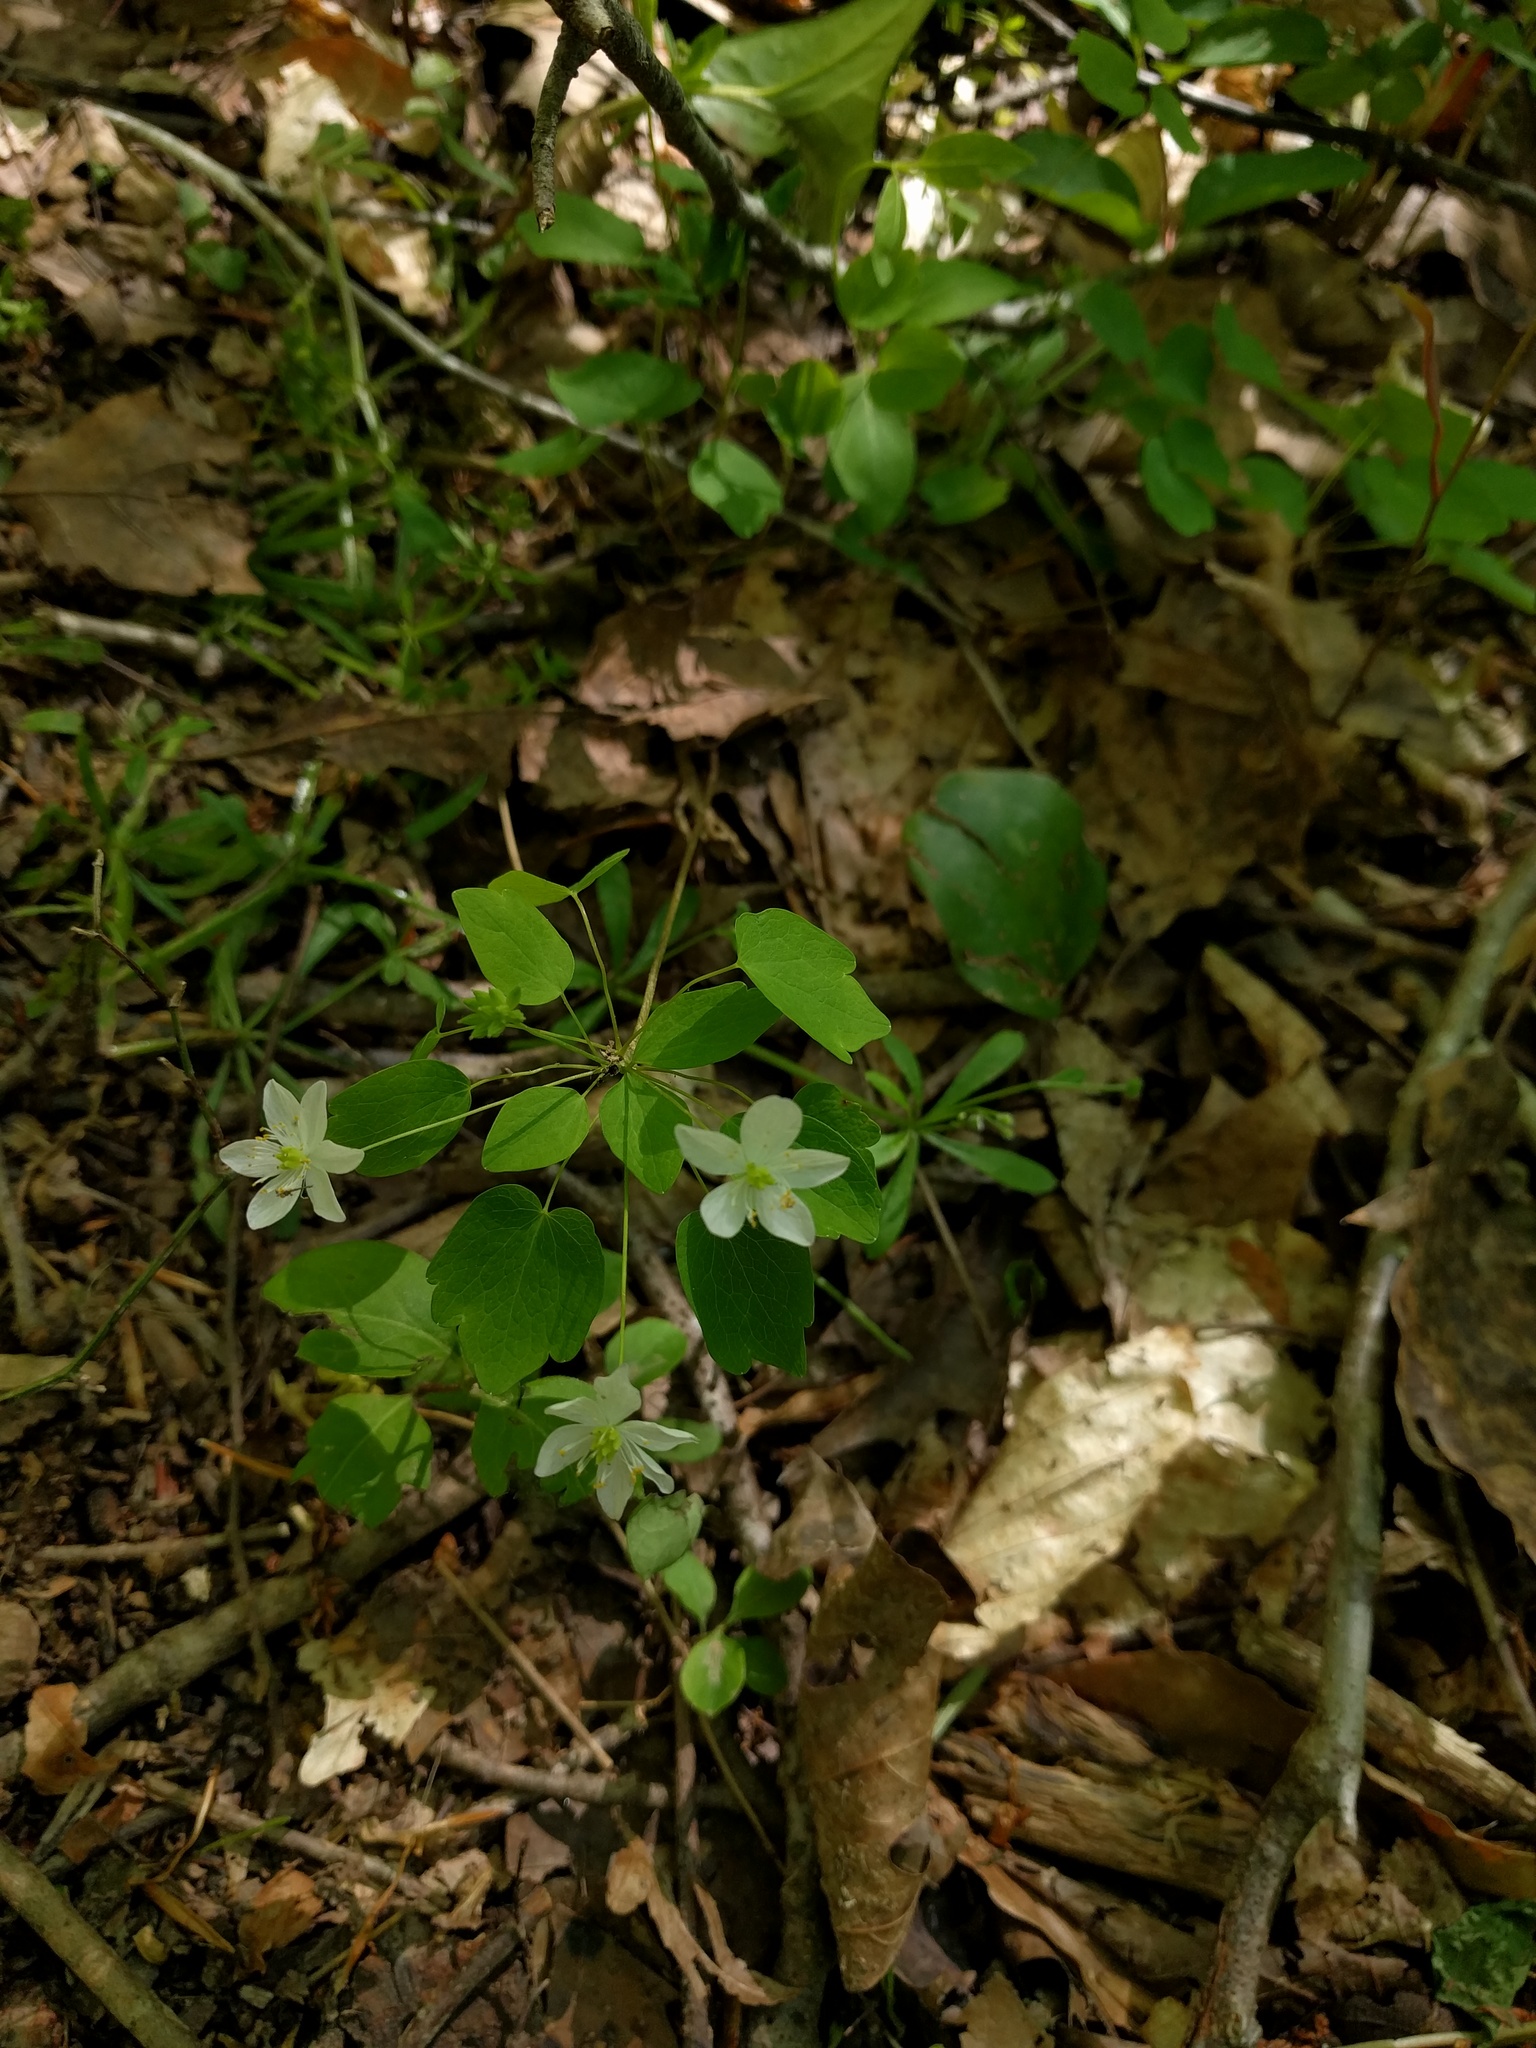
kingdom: Plantae
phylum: Tracheophyta
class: Magnoliopsida
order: Ranunculales
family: Ranunculaceae
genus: Thalictrum
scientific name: Thalictrum thalictroides
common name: Rue-anemone
